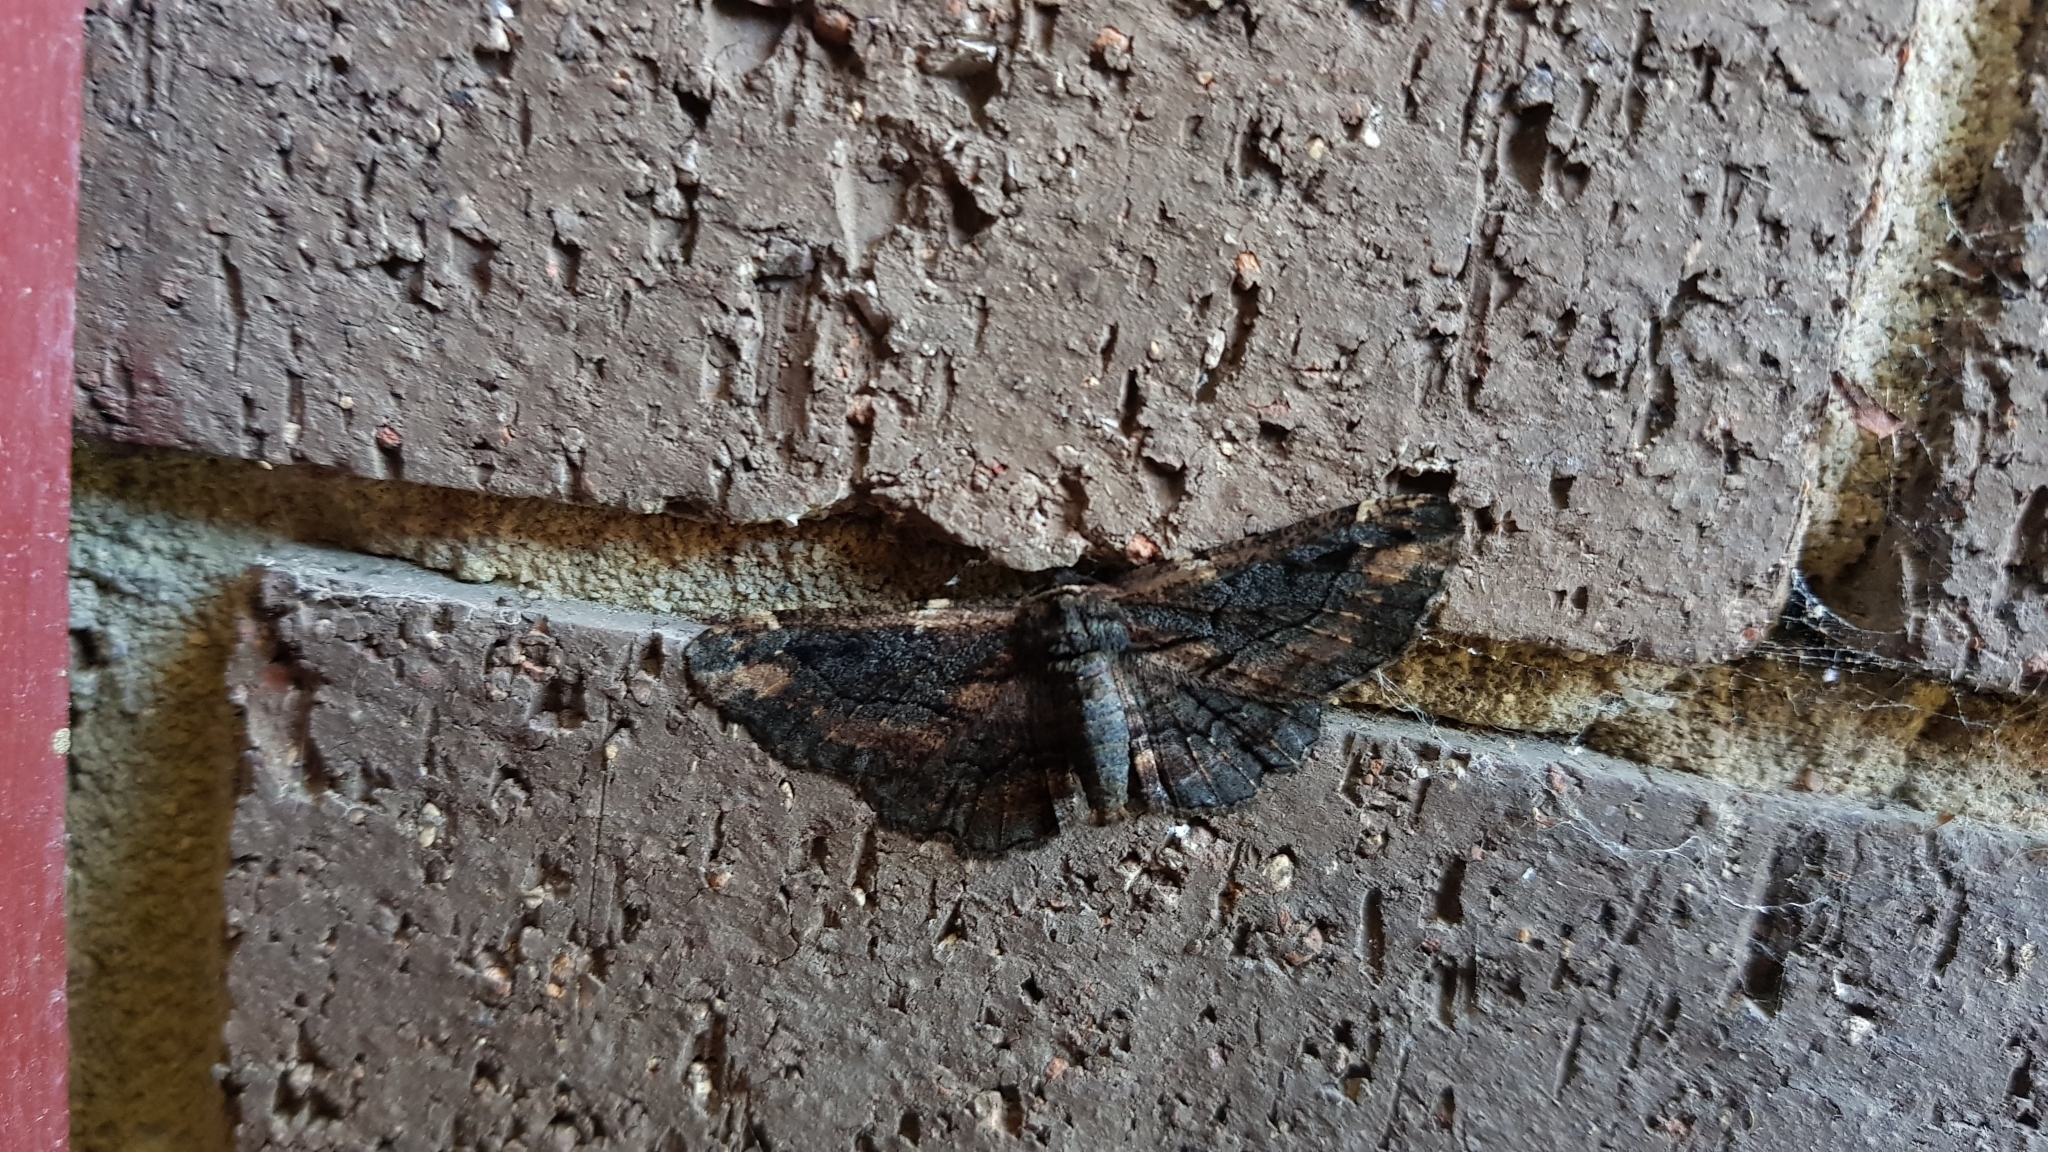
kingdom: Animalia
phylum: Arthropoda
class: Insecta
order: Lepidoptera
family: Geometridae
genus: Pholodes
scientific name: Pholodes sinistraria
